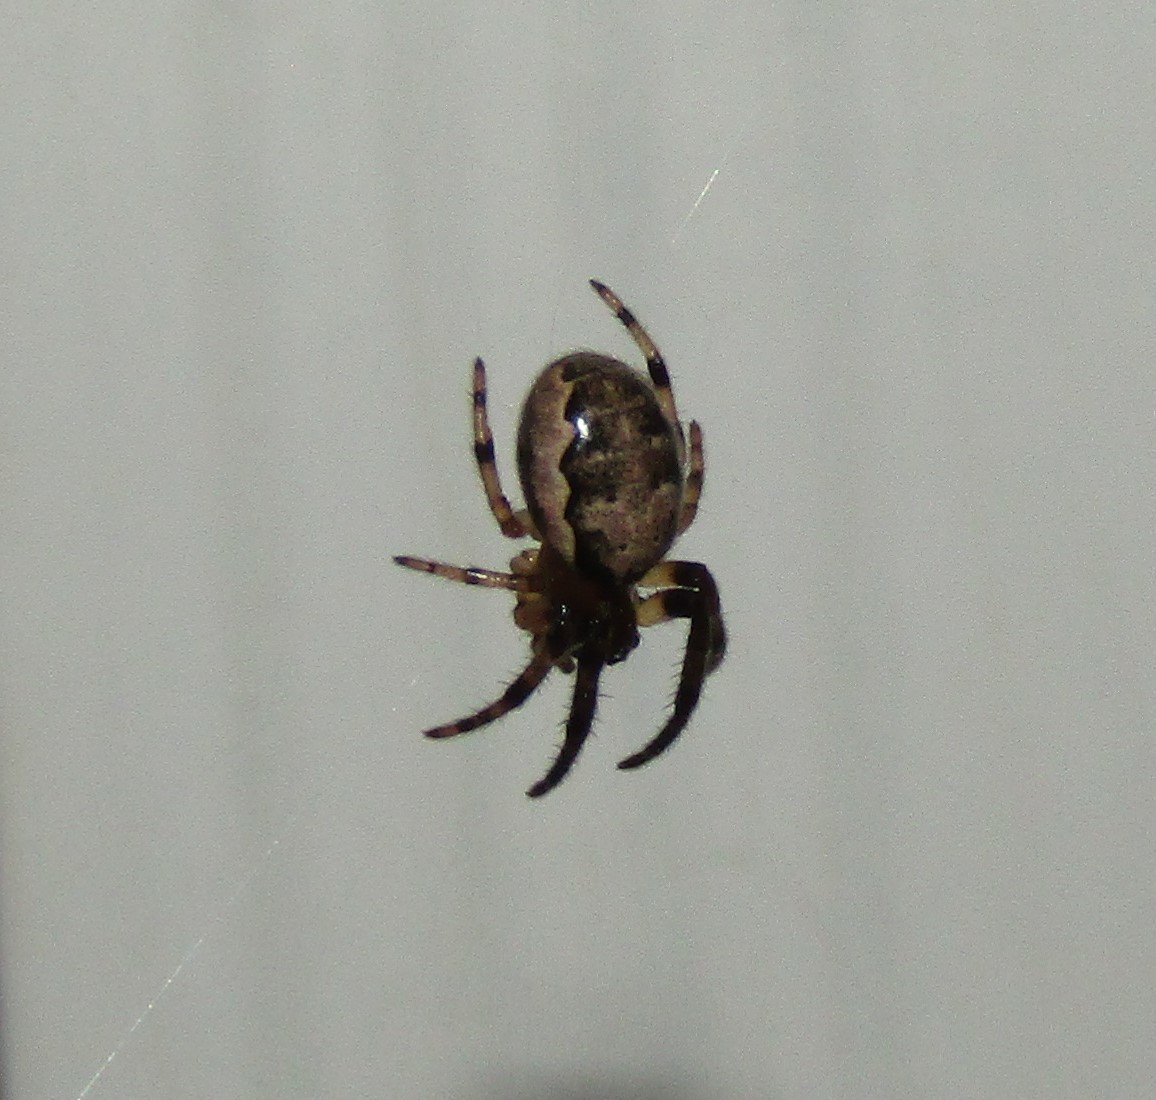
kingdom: Animalia
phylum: Arthropoda
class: Arachnida
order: Araneae
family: Araneidae
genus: Larinioides
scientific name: Larinioides cornutus
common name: Furrow orbweaver
